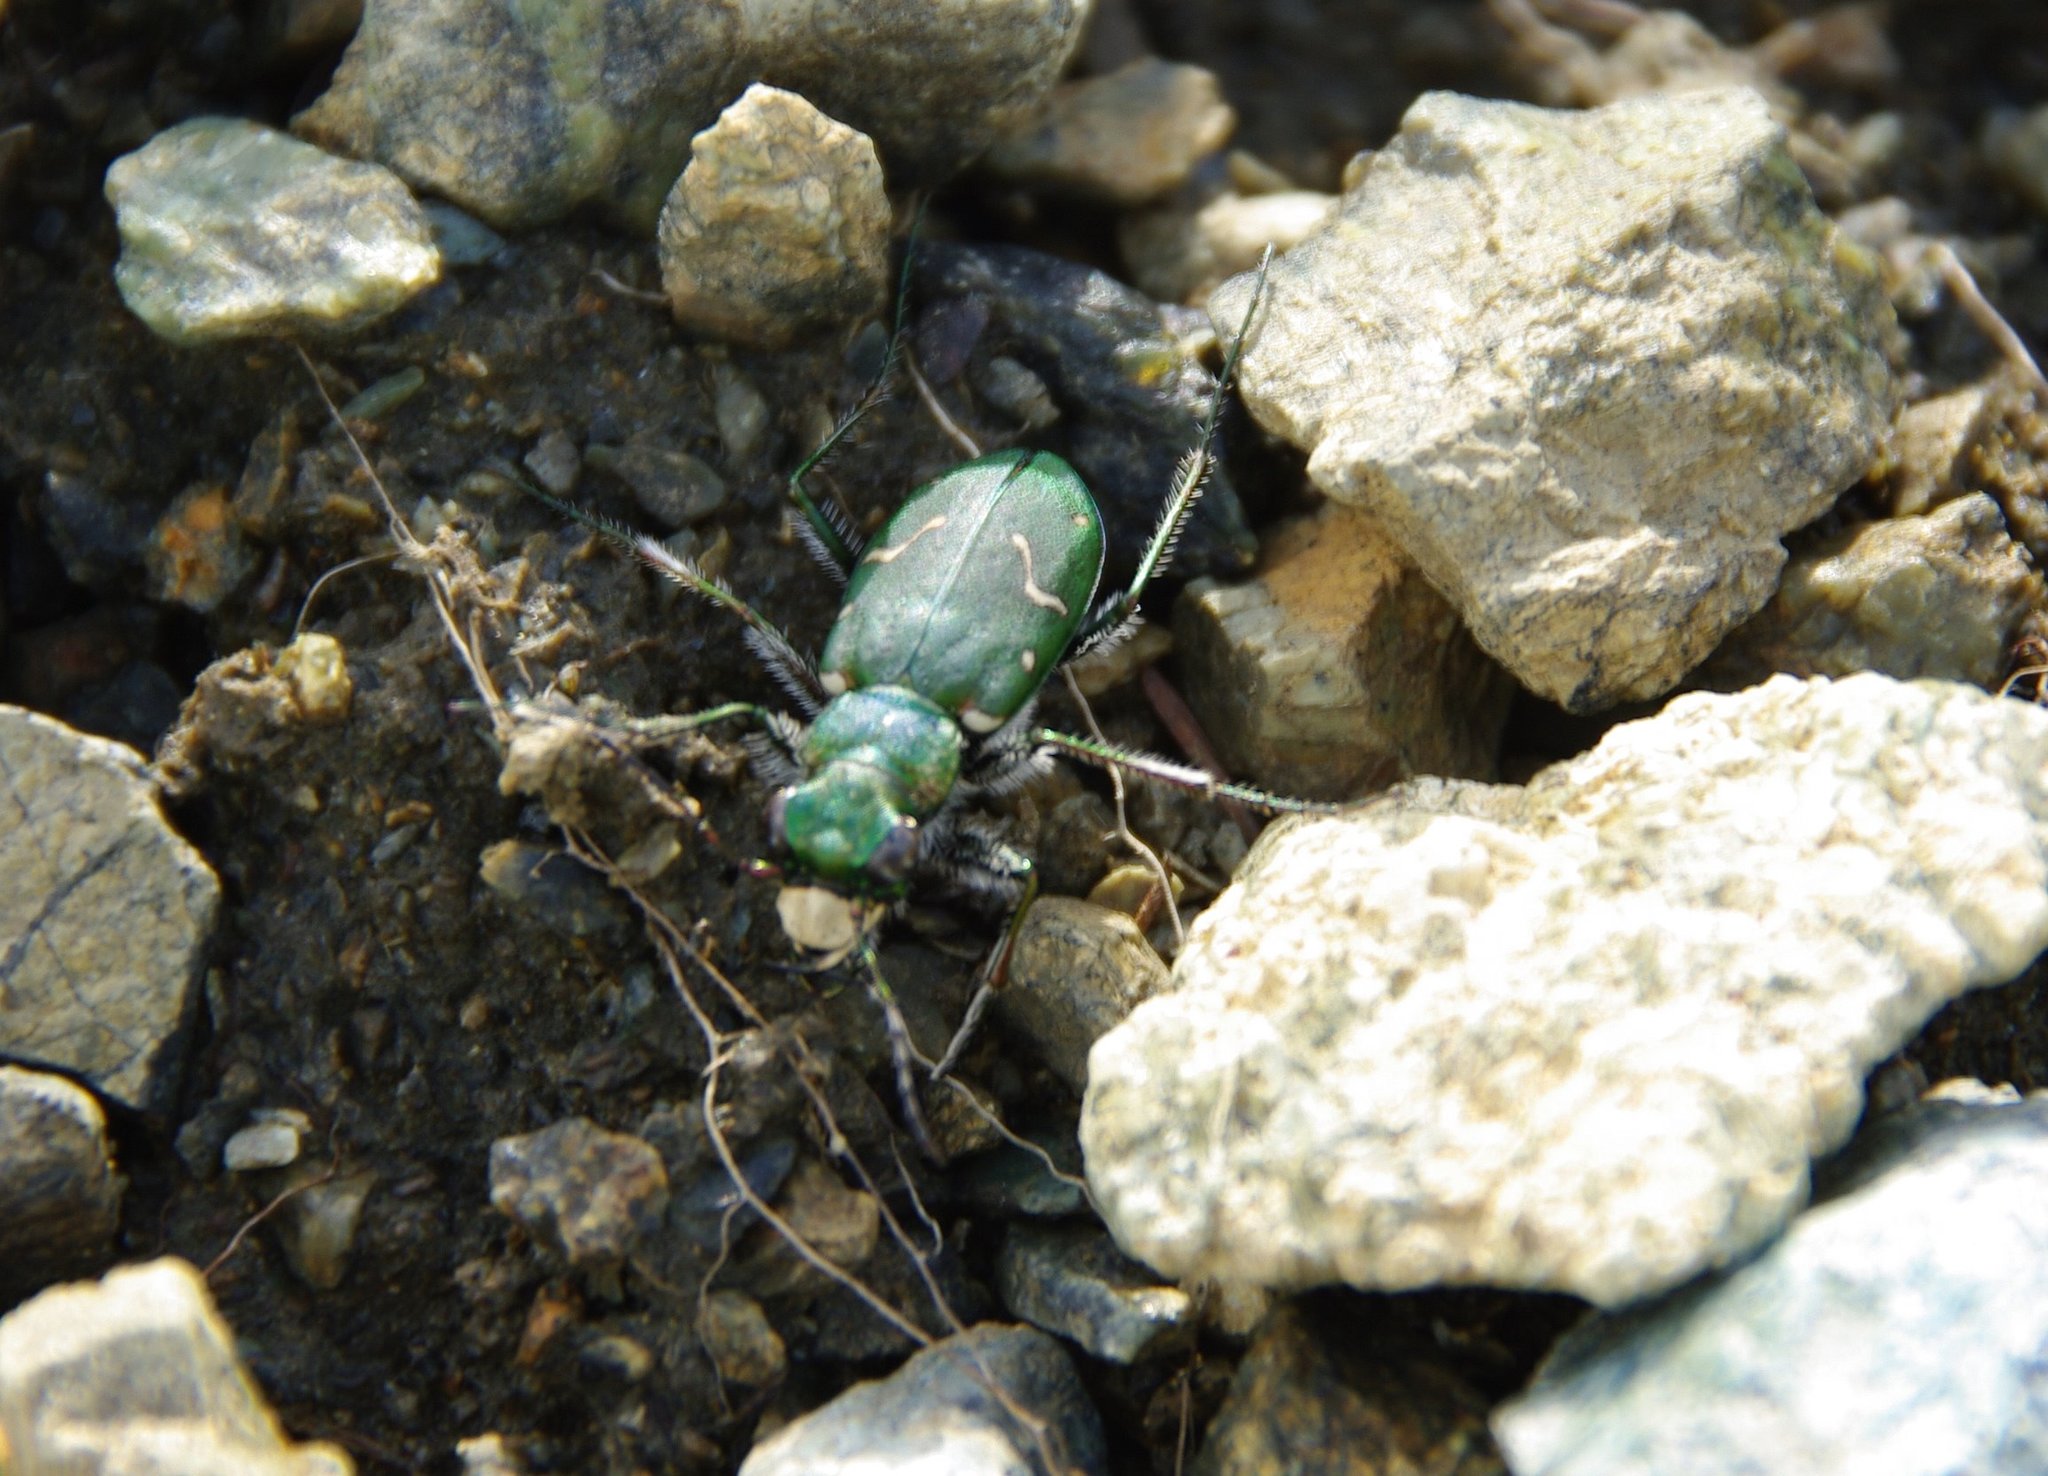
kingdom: Animalia
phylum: Arthropoda
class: Insecta
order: Coleoptera
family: Carabidae
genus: Cicindela
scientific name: Cicindela longilabris
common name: Boreal long-lipped tiger beetle
